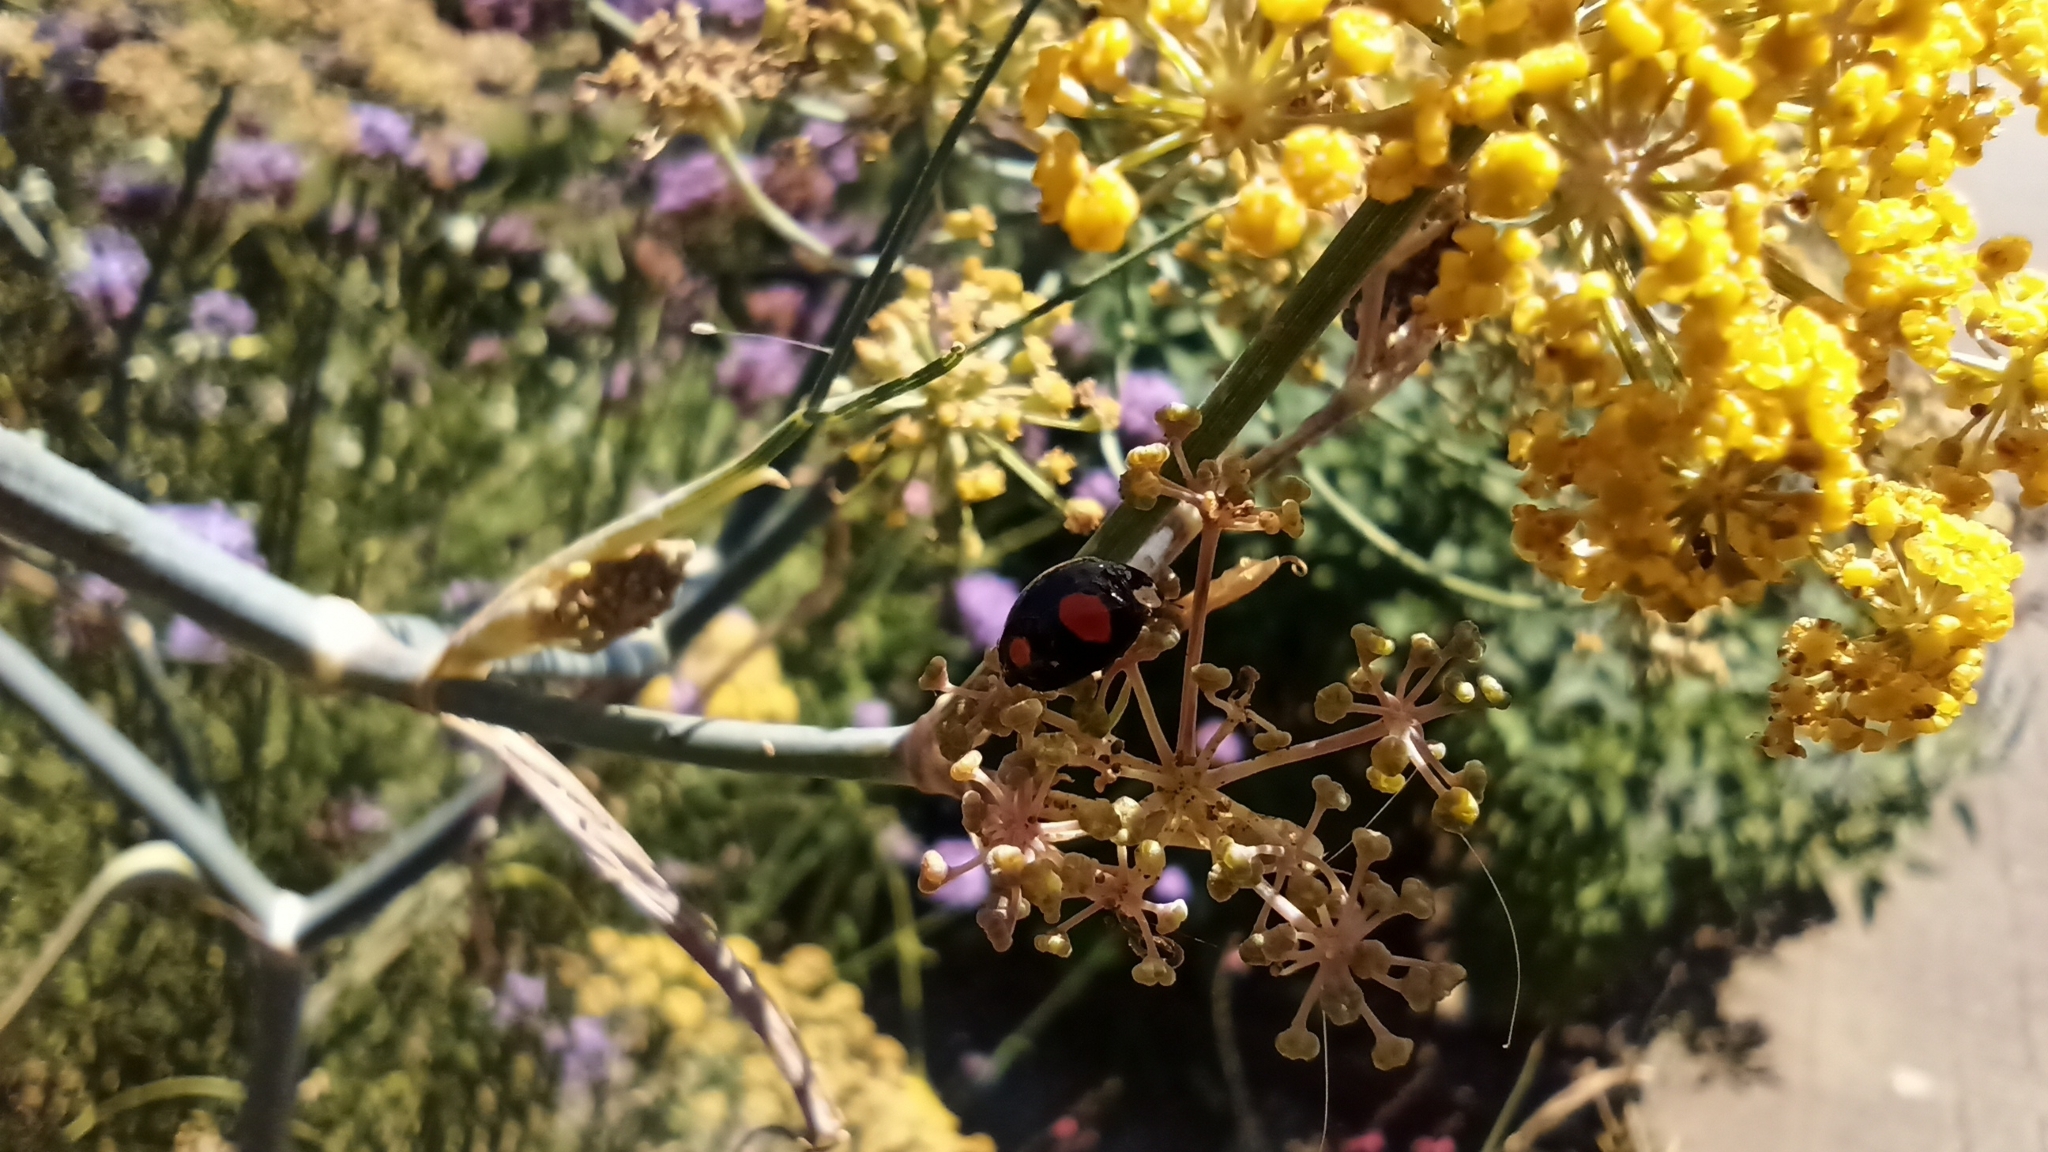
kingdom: Animalia
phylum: Arthropoda
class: Insecta
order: Coleoptera
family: Coccinellidae
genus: Harmonia
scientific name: Harmonia axyridis
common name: Harlequin ladybird
